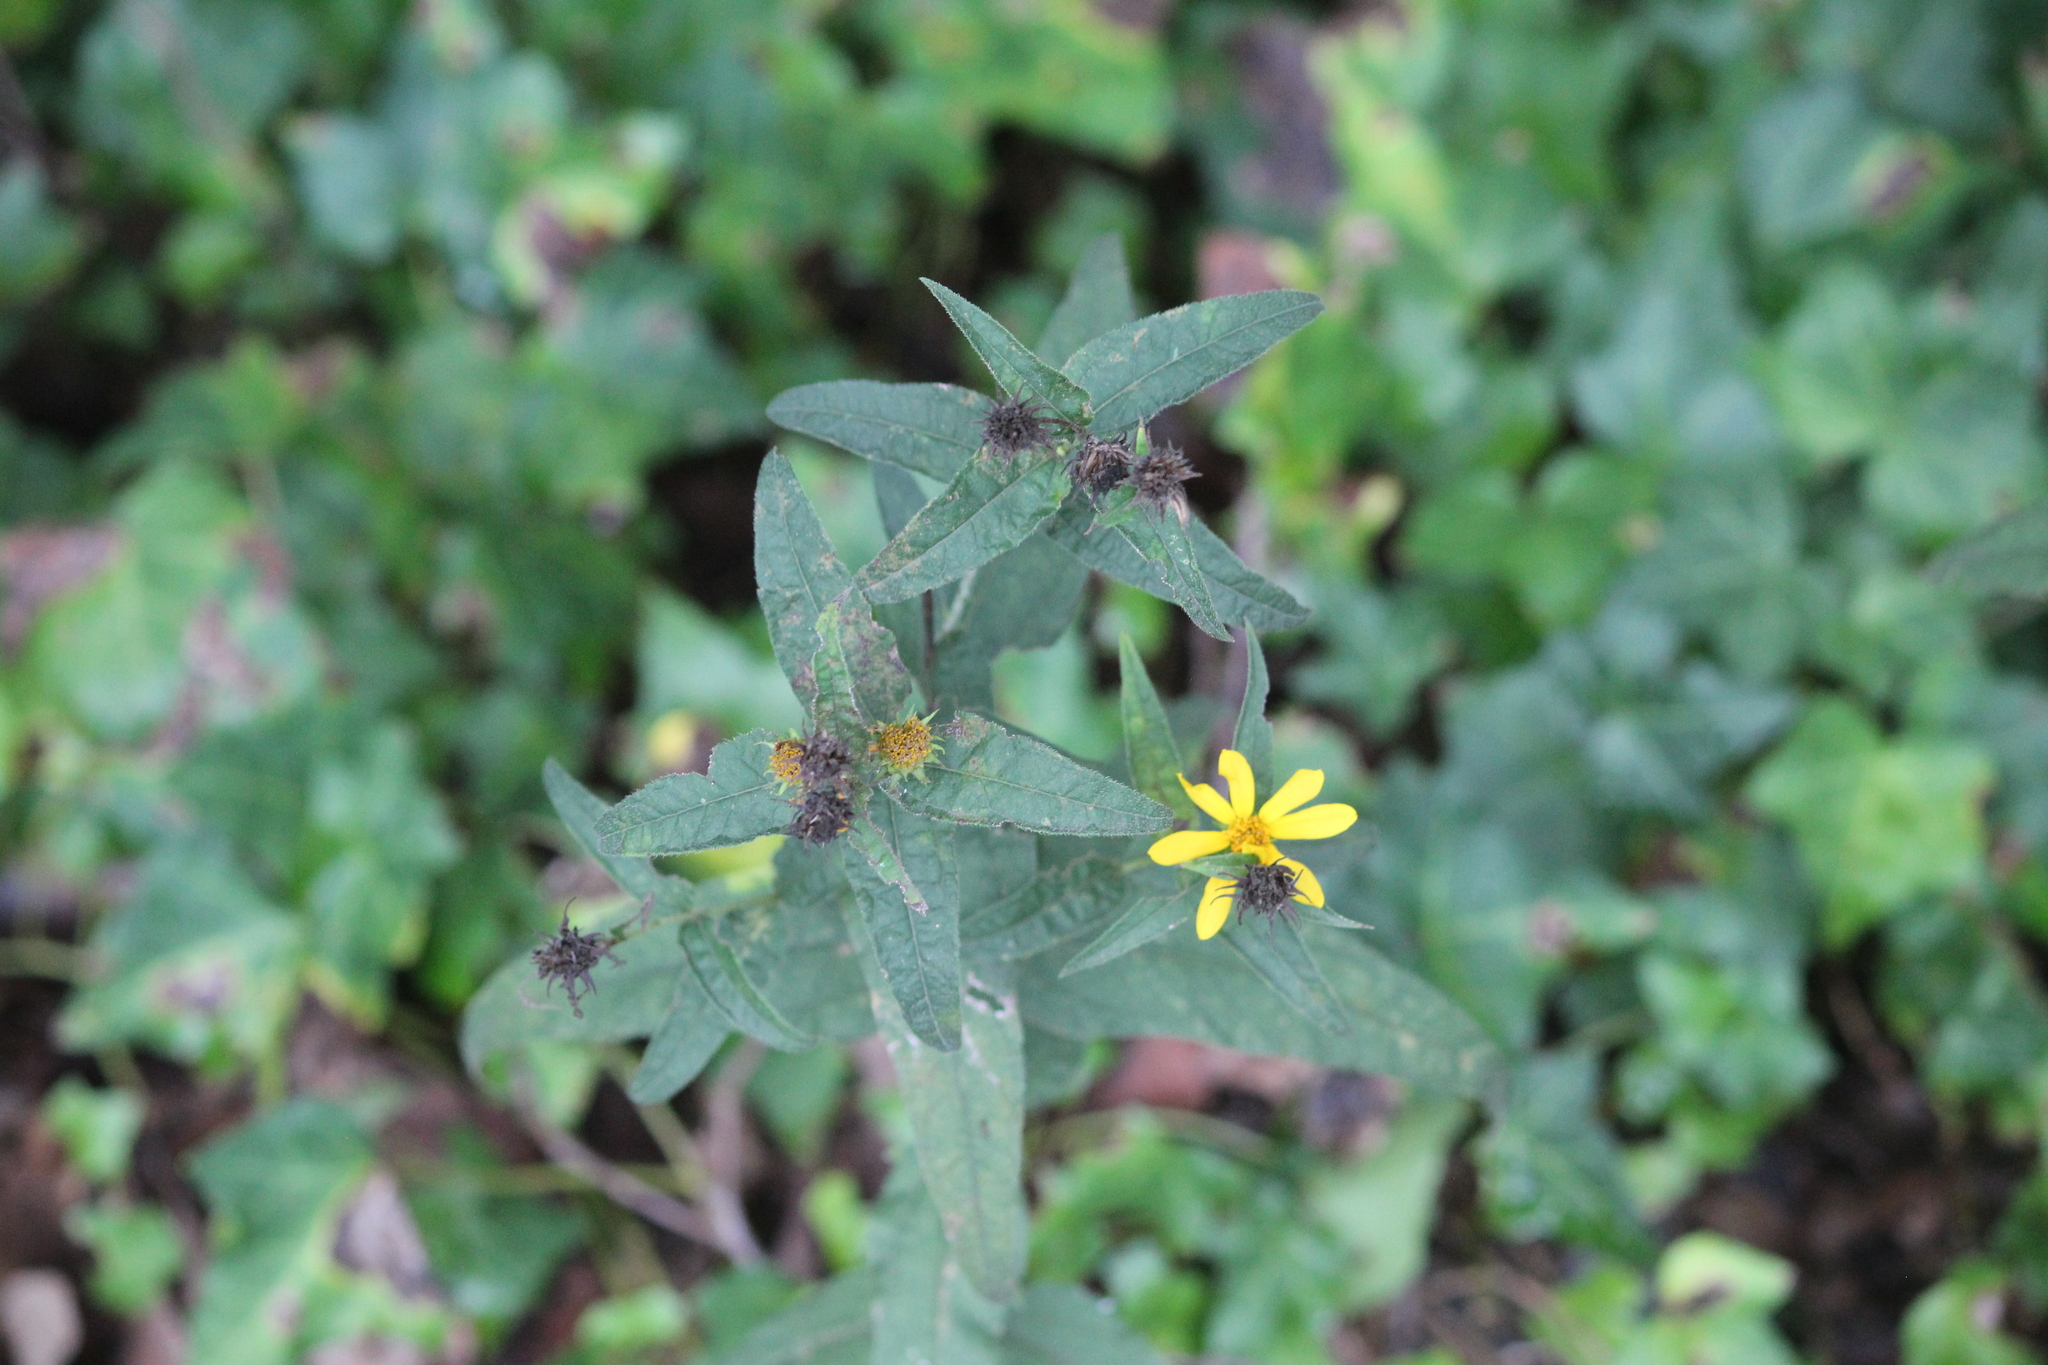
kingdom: Plantae
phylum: Tracheophyta
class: Magnoliopsida
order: Asterales
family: Asteraceae
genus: Helianthus
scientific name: Helianthus divaricatus
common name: Divergent sunflower
